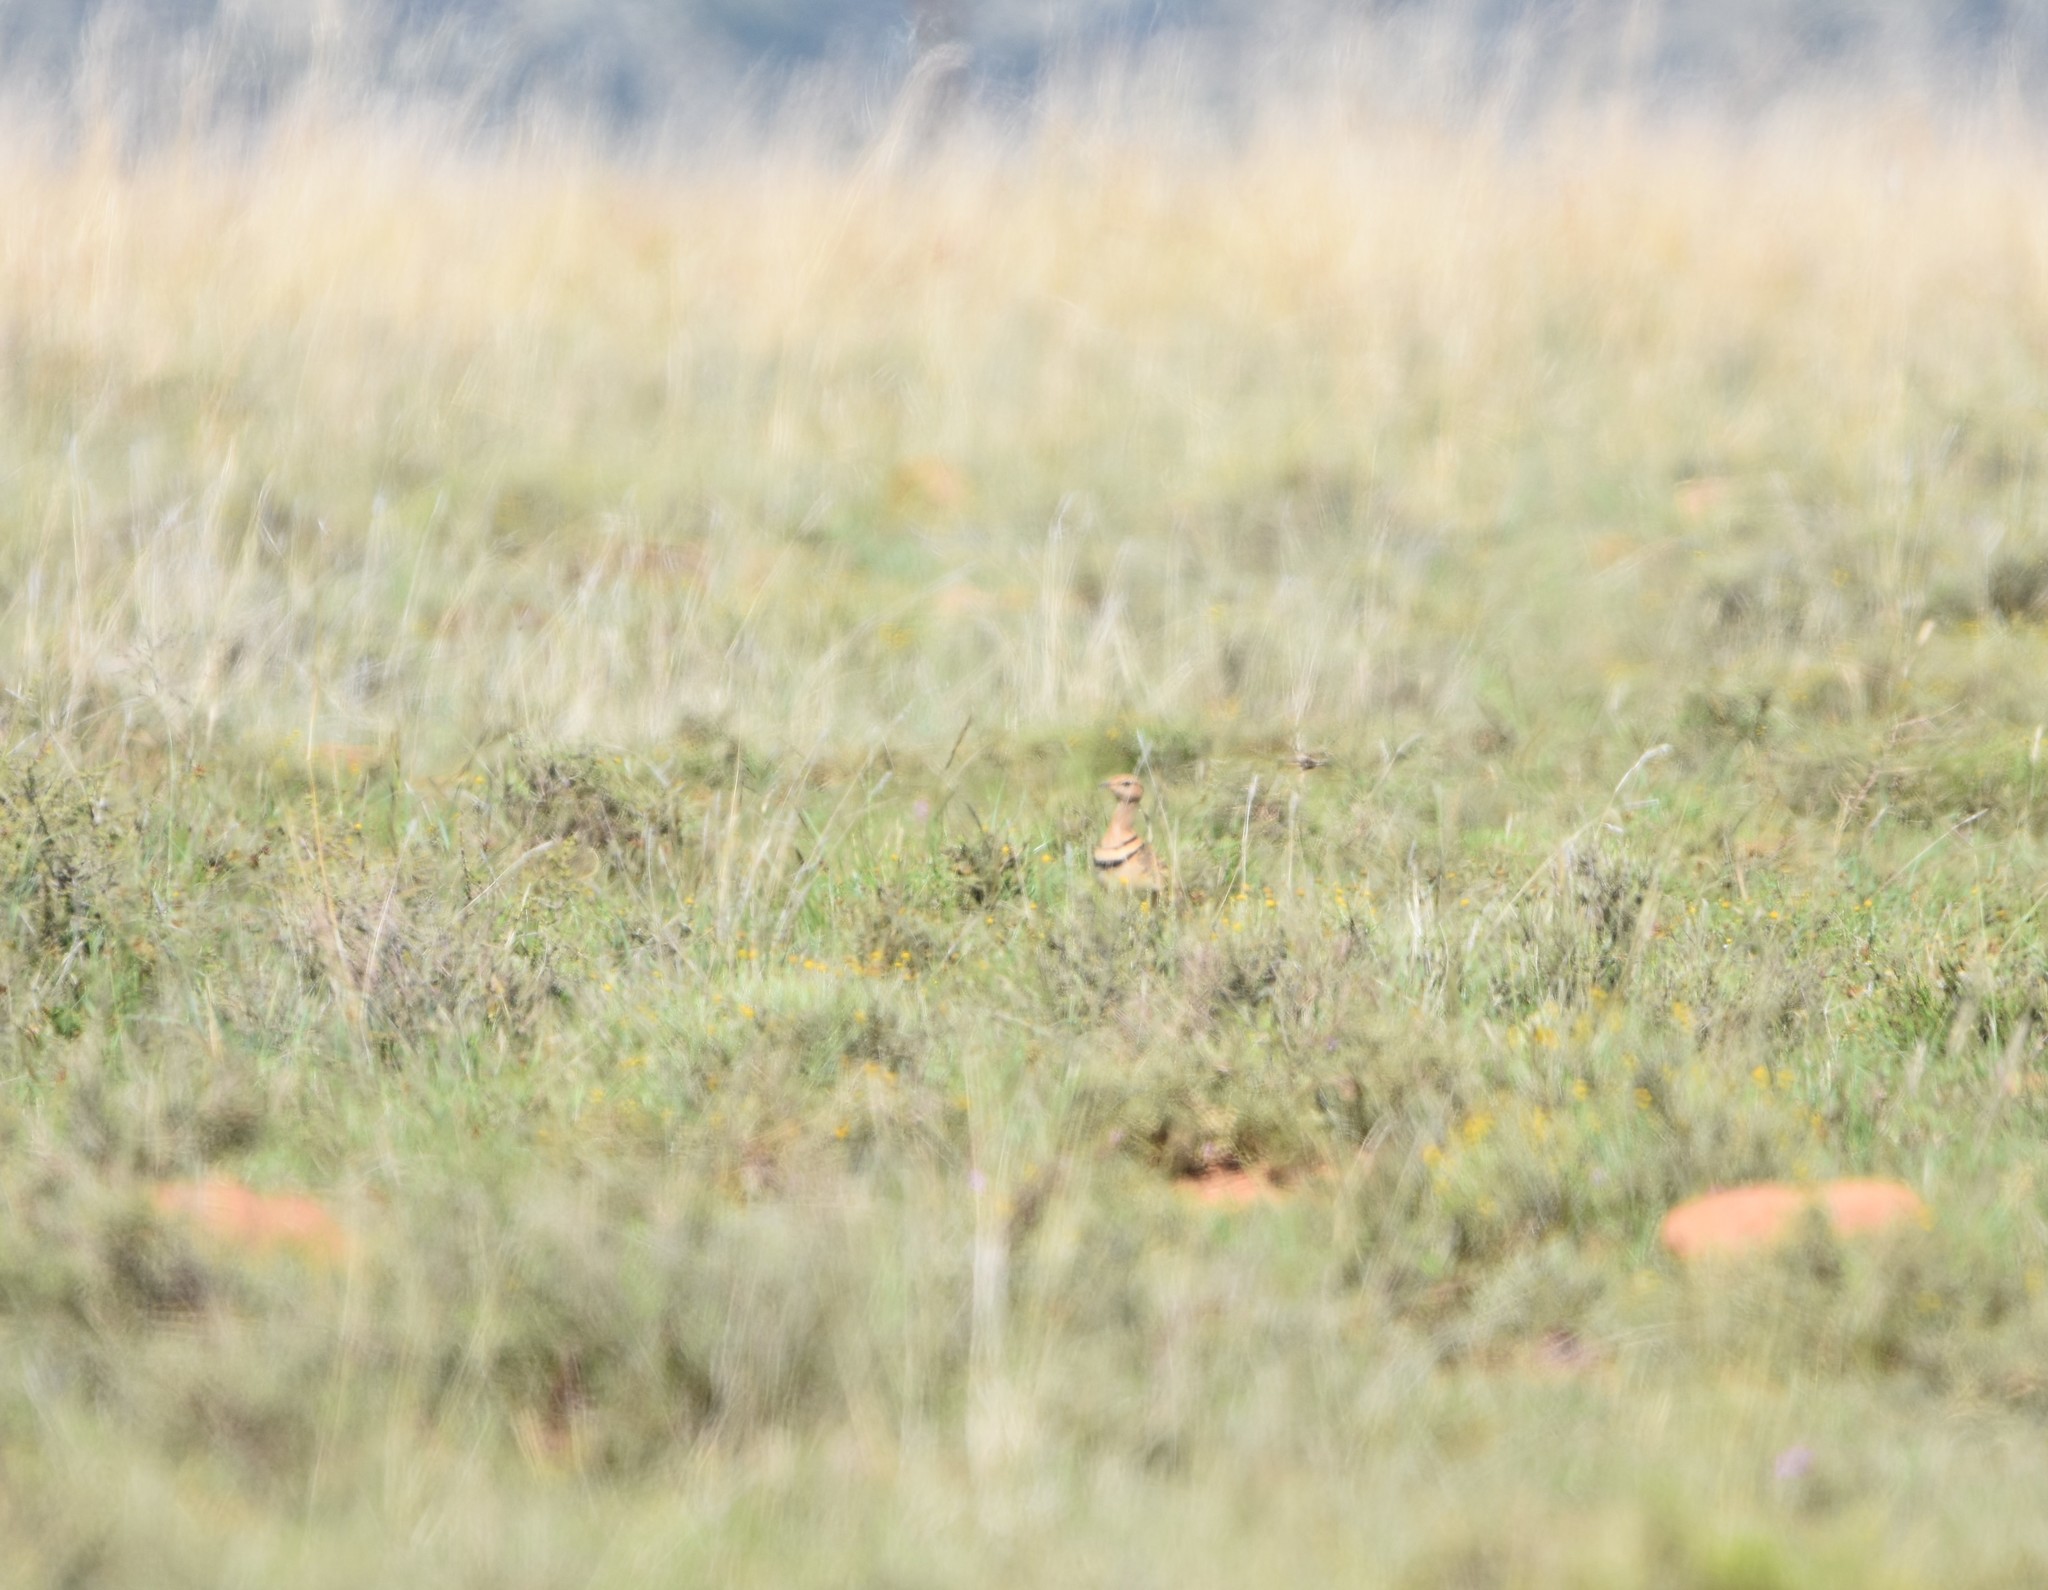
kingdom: Animalia
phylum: Chordata
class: Aves
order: Charadriiformes
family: Glareolidae
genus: Rhinoptilus
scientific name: Rhinoptilus africanus
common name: Double-banded courser
